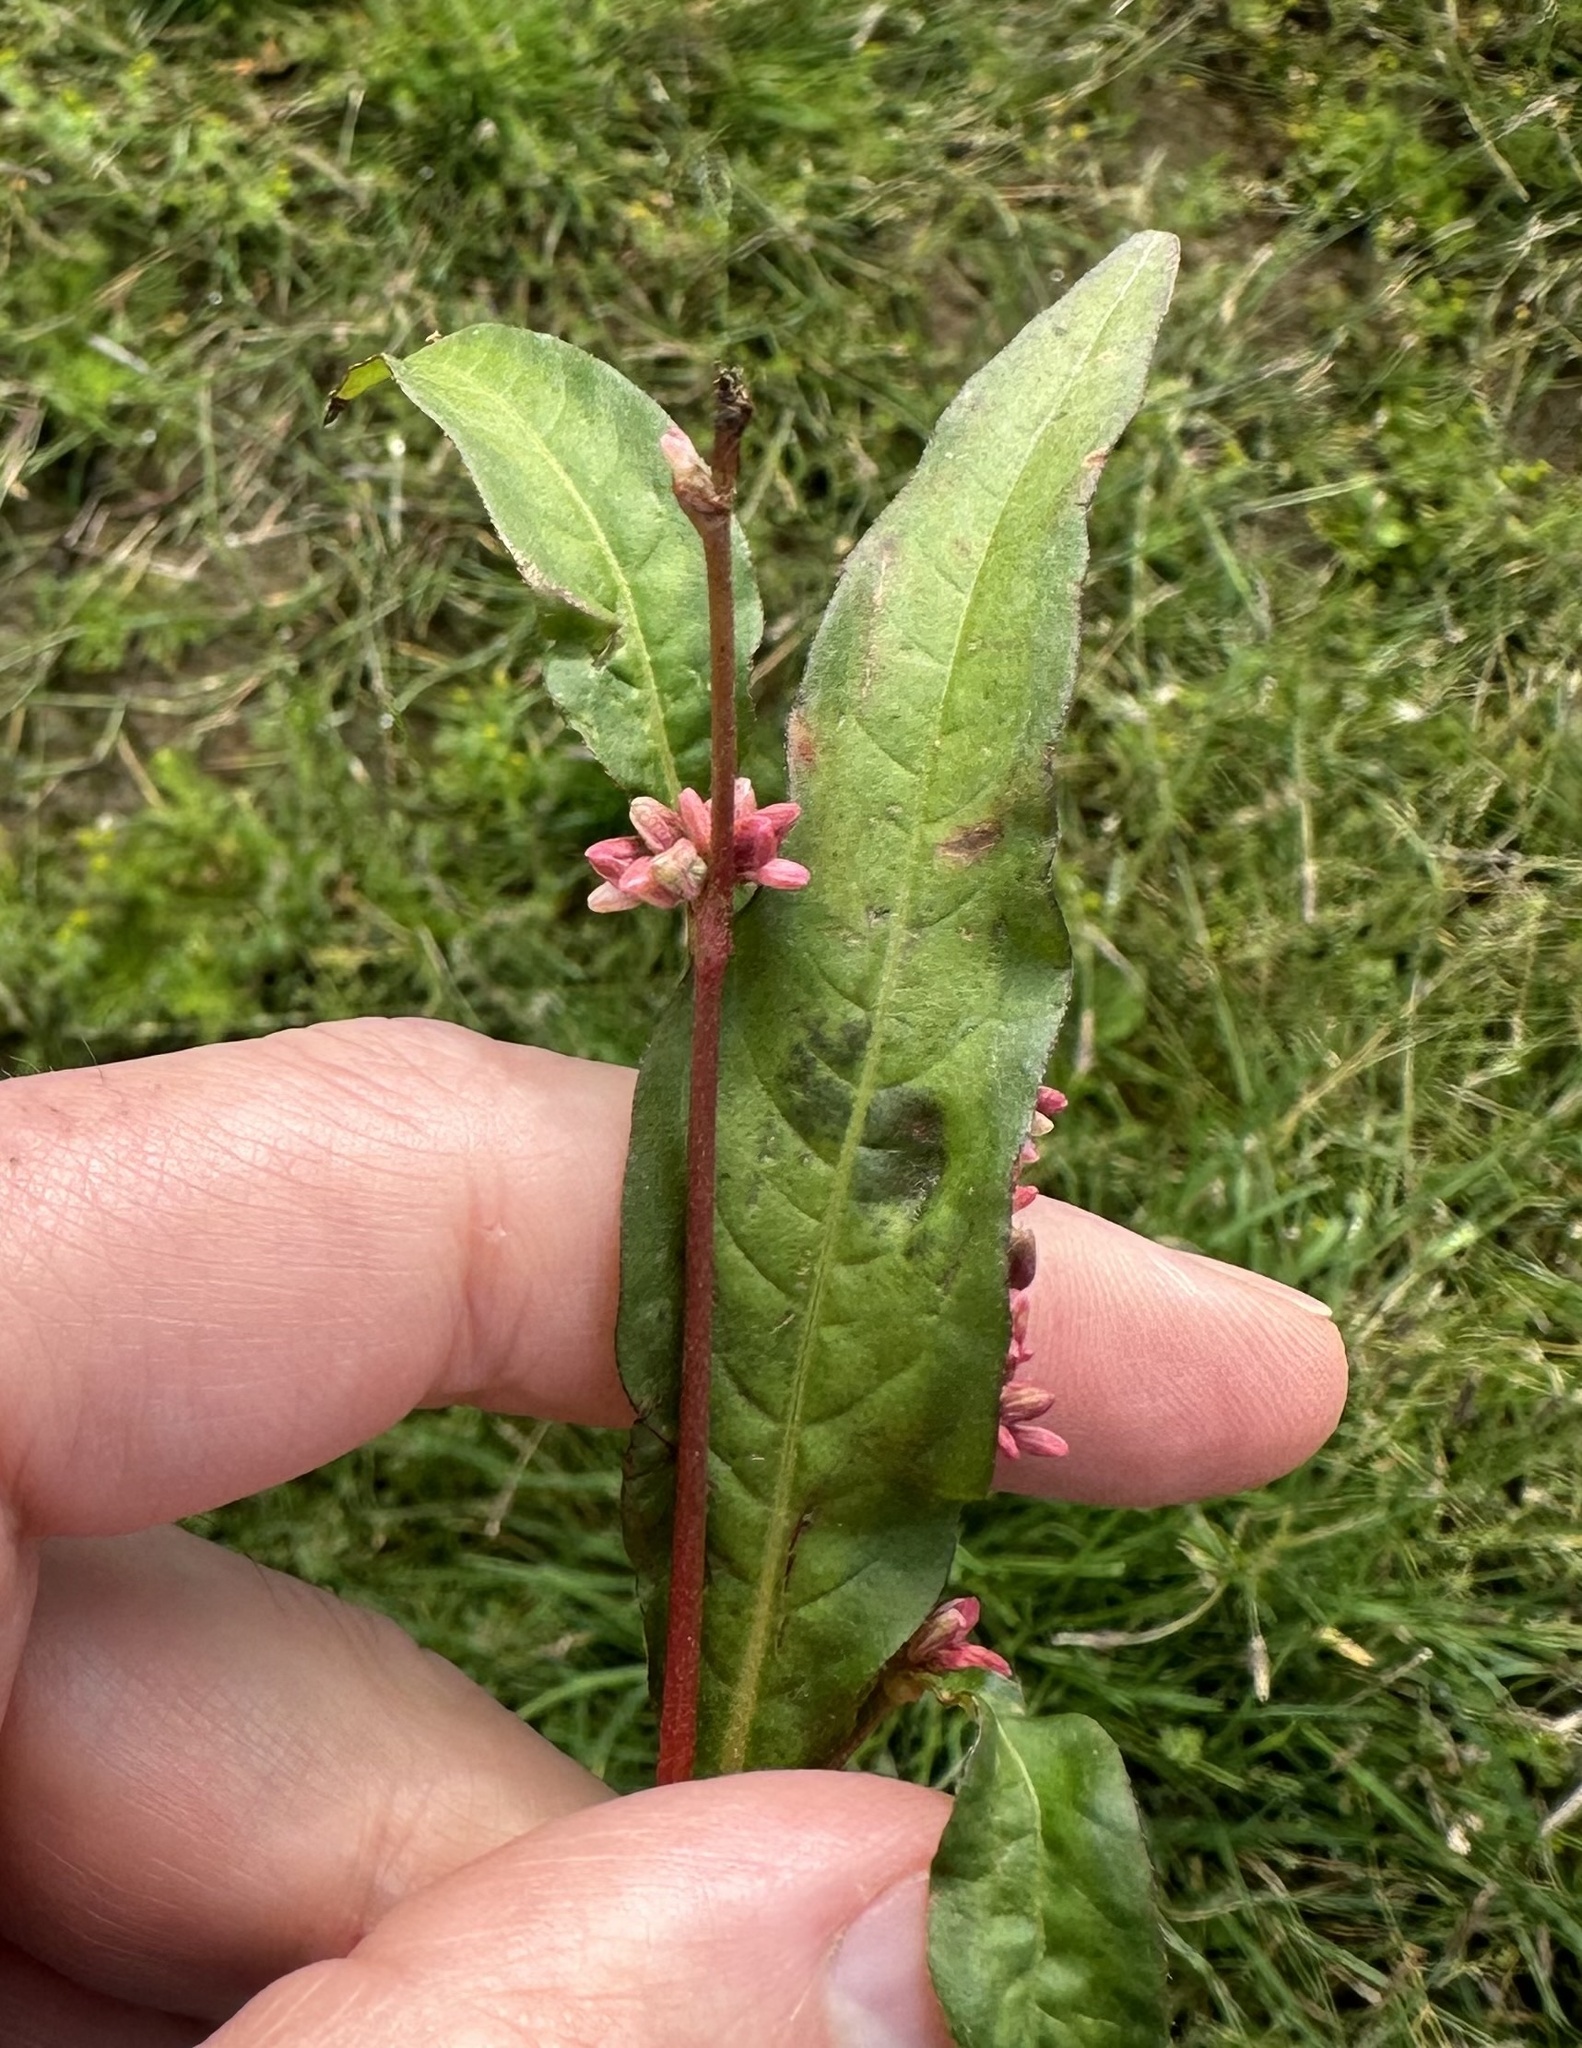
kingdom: Plantae
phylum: Tracheophyta
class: Magnoliopsida
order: Caryophyllales
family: Polygonaceae
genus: Persicaria
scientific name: Persicaria maculosa
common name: Redshank
